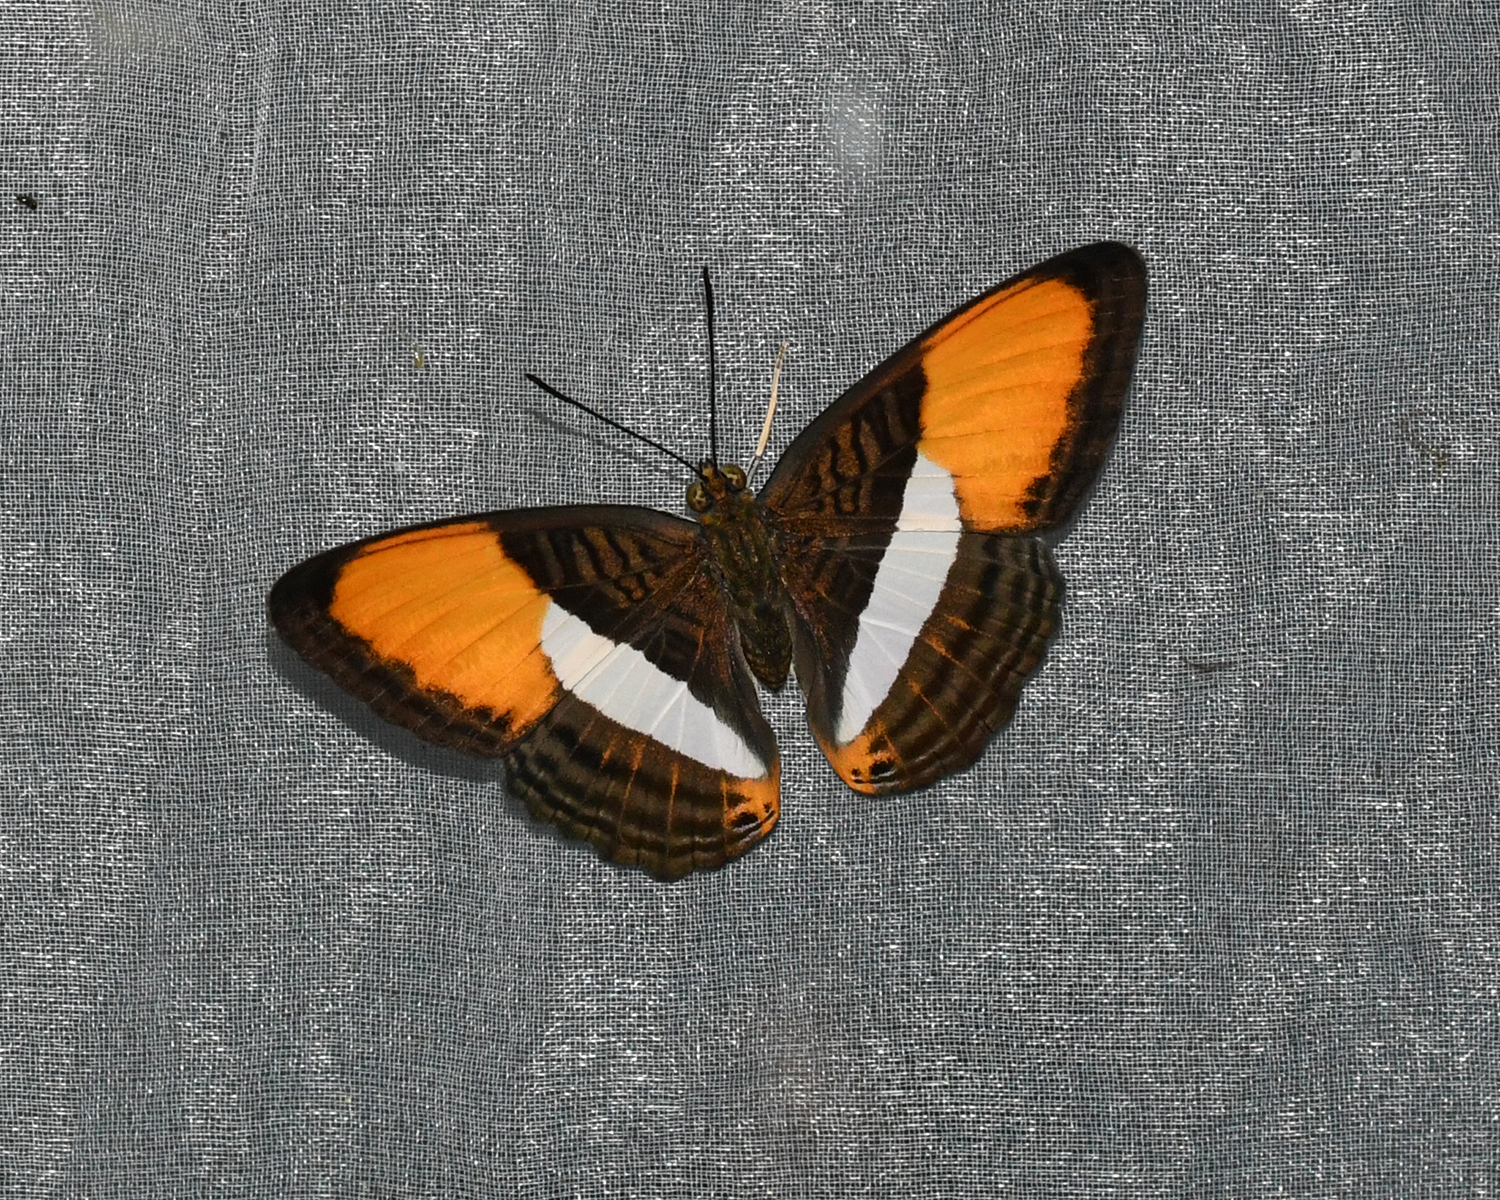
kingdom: Animalia
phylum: Arthropoda
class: Insecta
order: Lepidoptera
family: Nymphalidae
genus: Limenitis
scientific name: Limenitis cytherea
